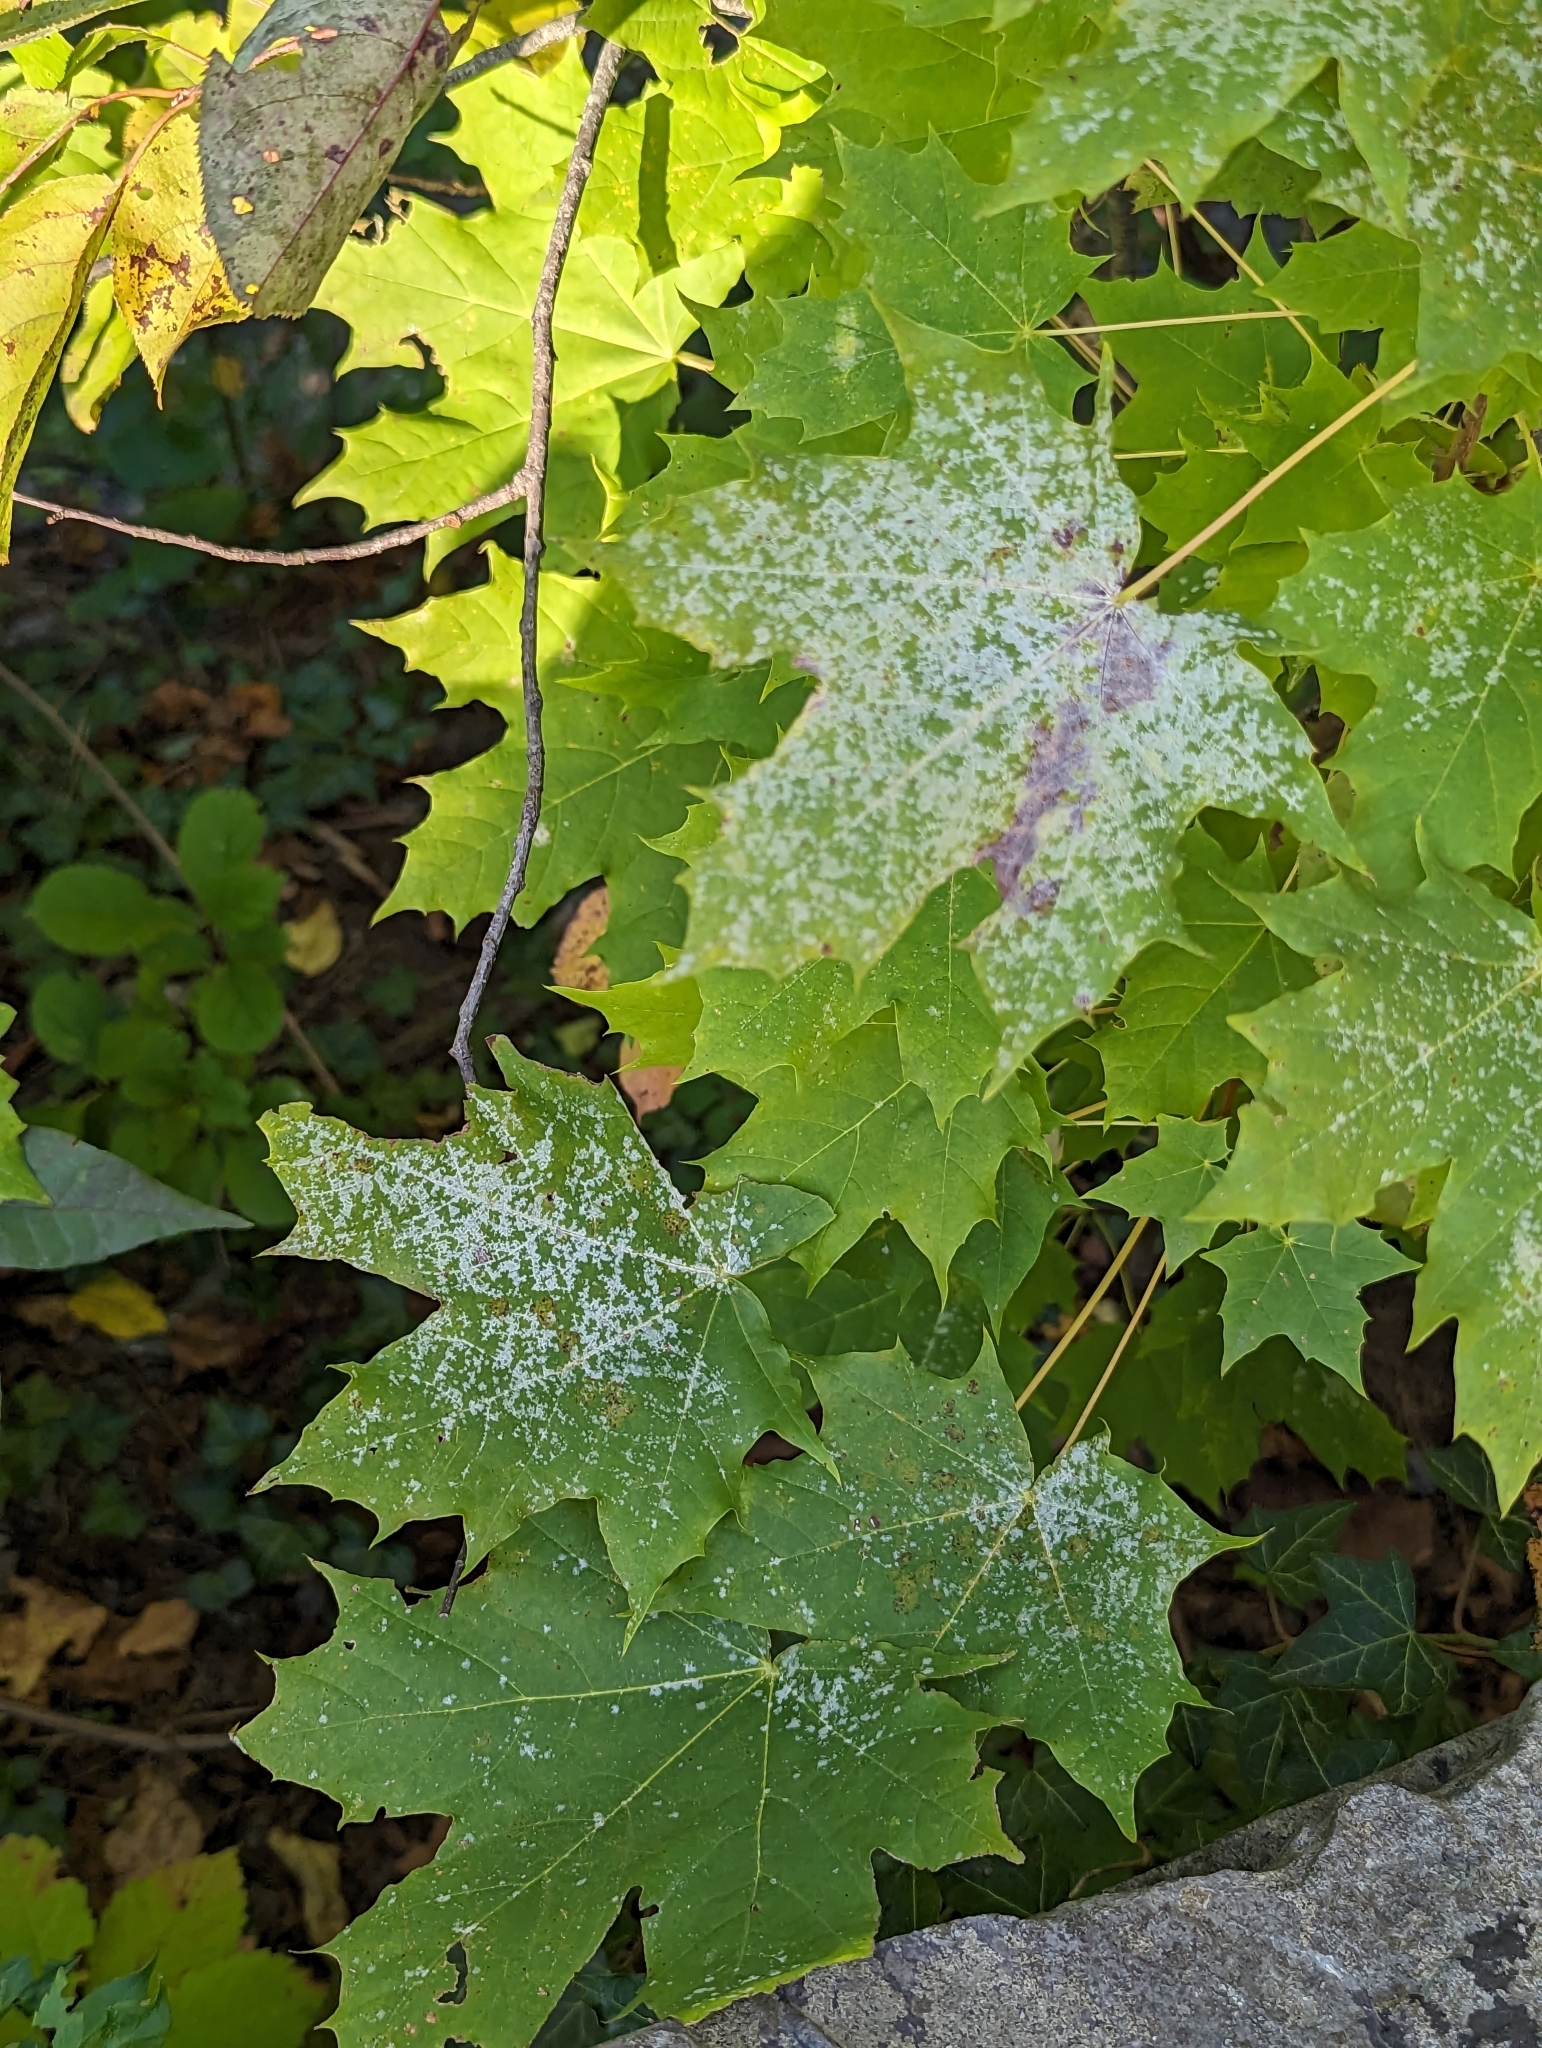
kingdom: Fungi
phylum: Ascomycota
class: Leotiomycetes
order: Helotiales
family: Erysiphaceae
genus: Sawadaea
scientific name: Sawadaea tulasnei
